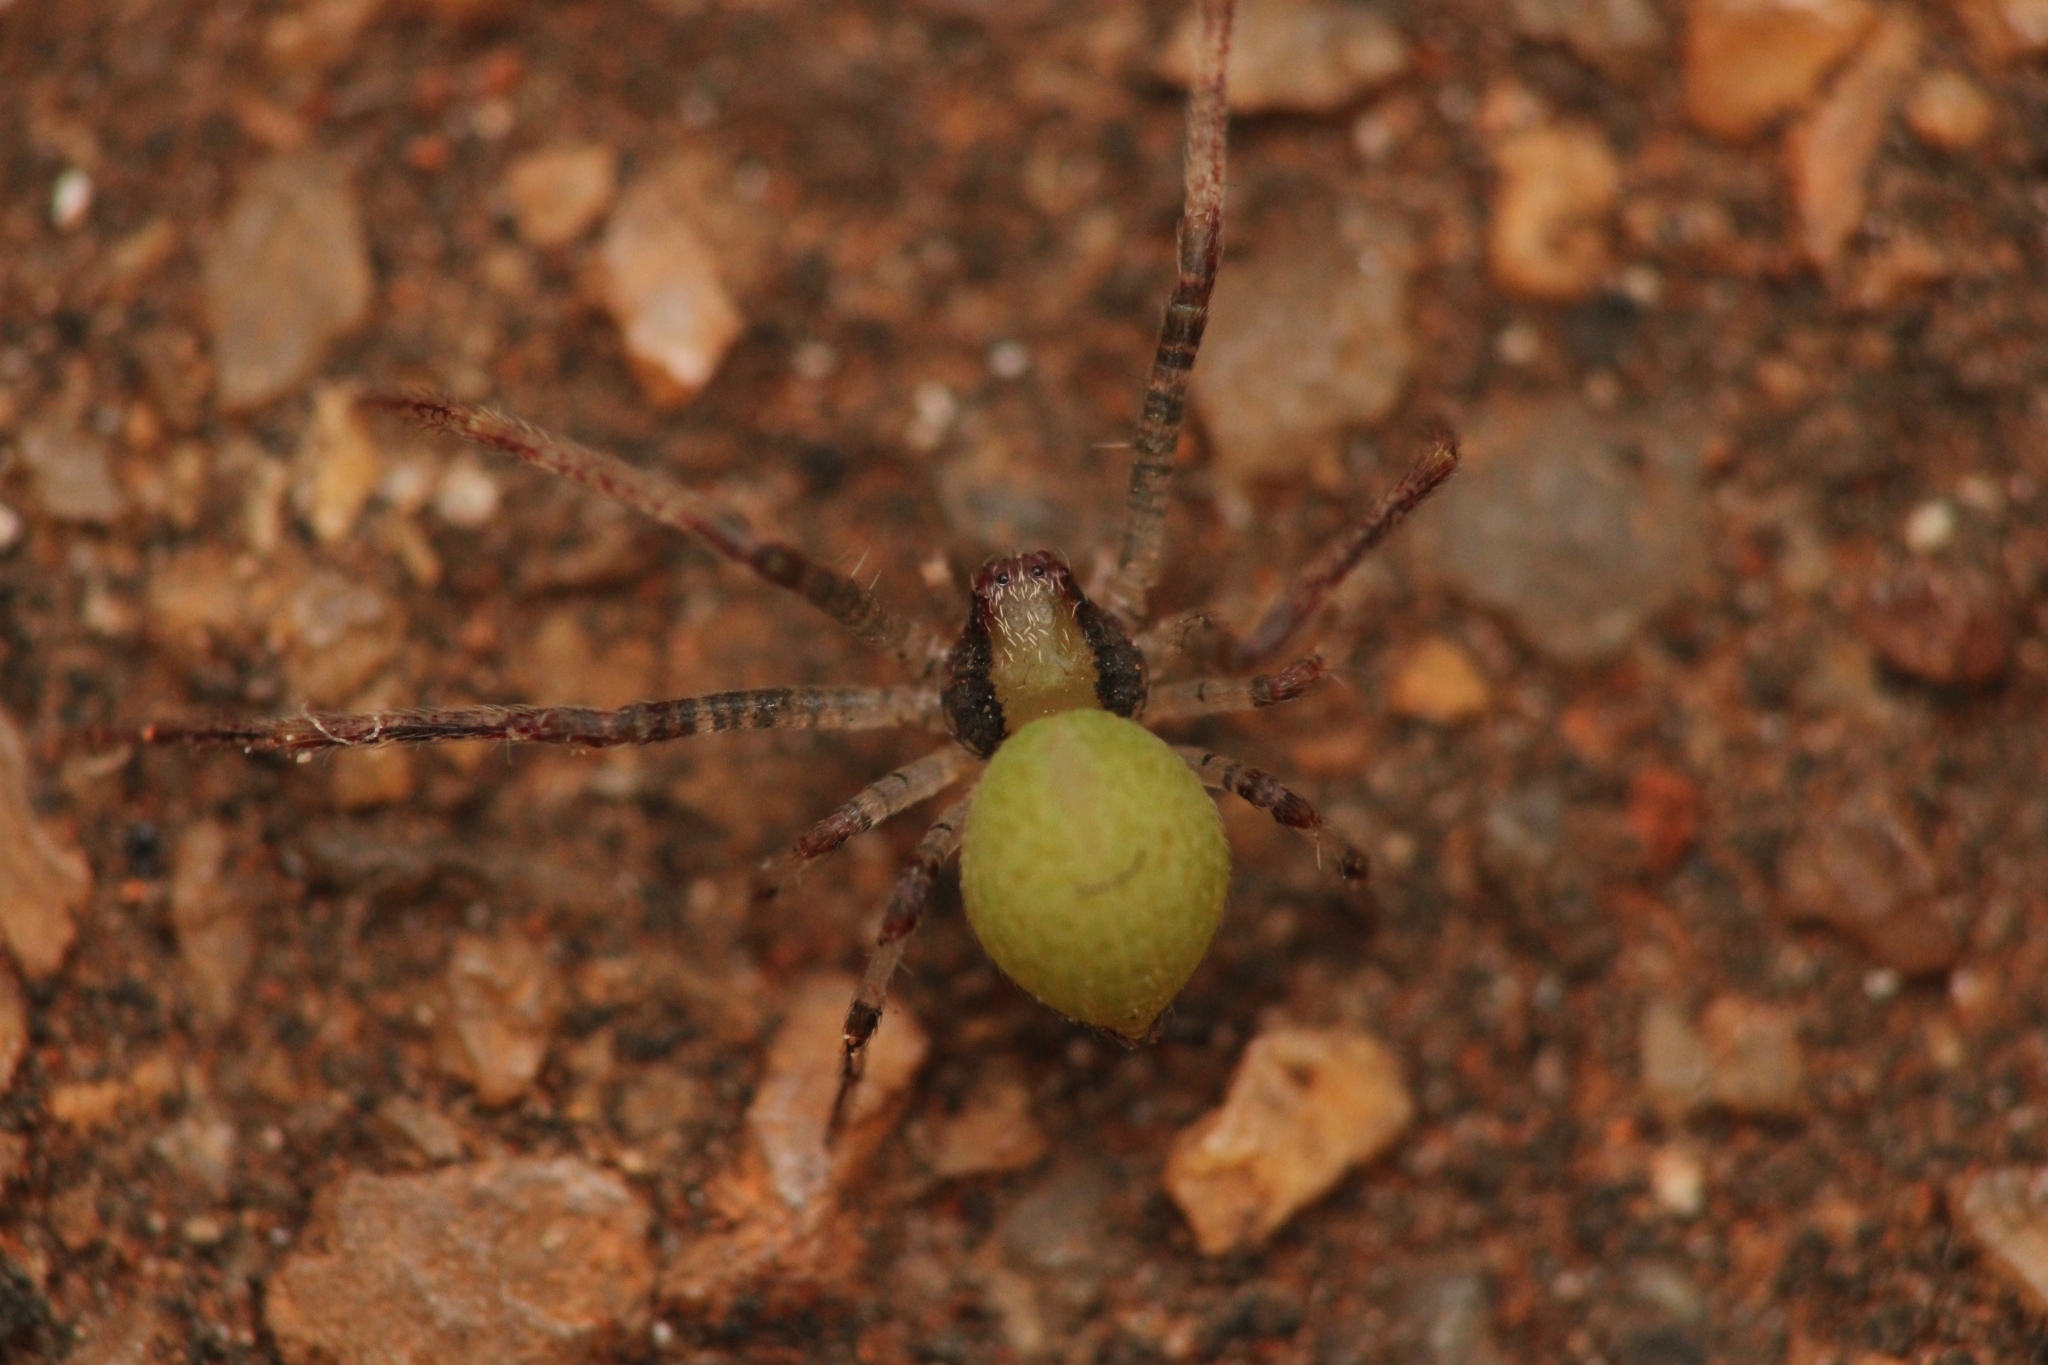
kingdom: Animalia
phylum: Arthropoda
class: Arachnida
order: Araneae
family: Thomisidae
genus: Geraesta
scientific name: Geraesta congoensis
